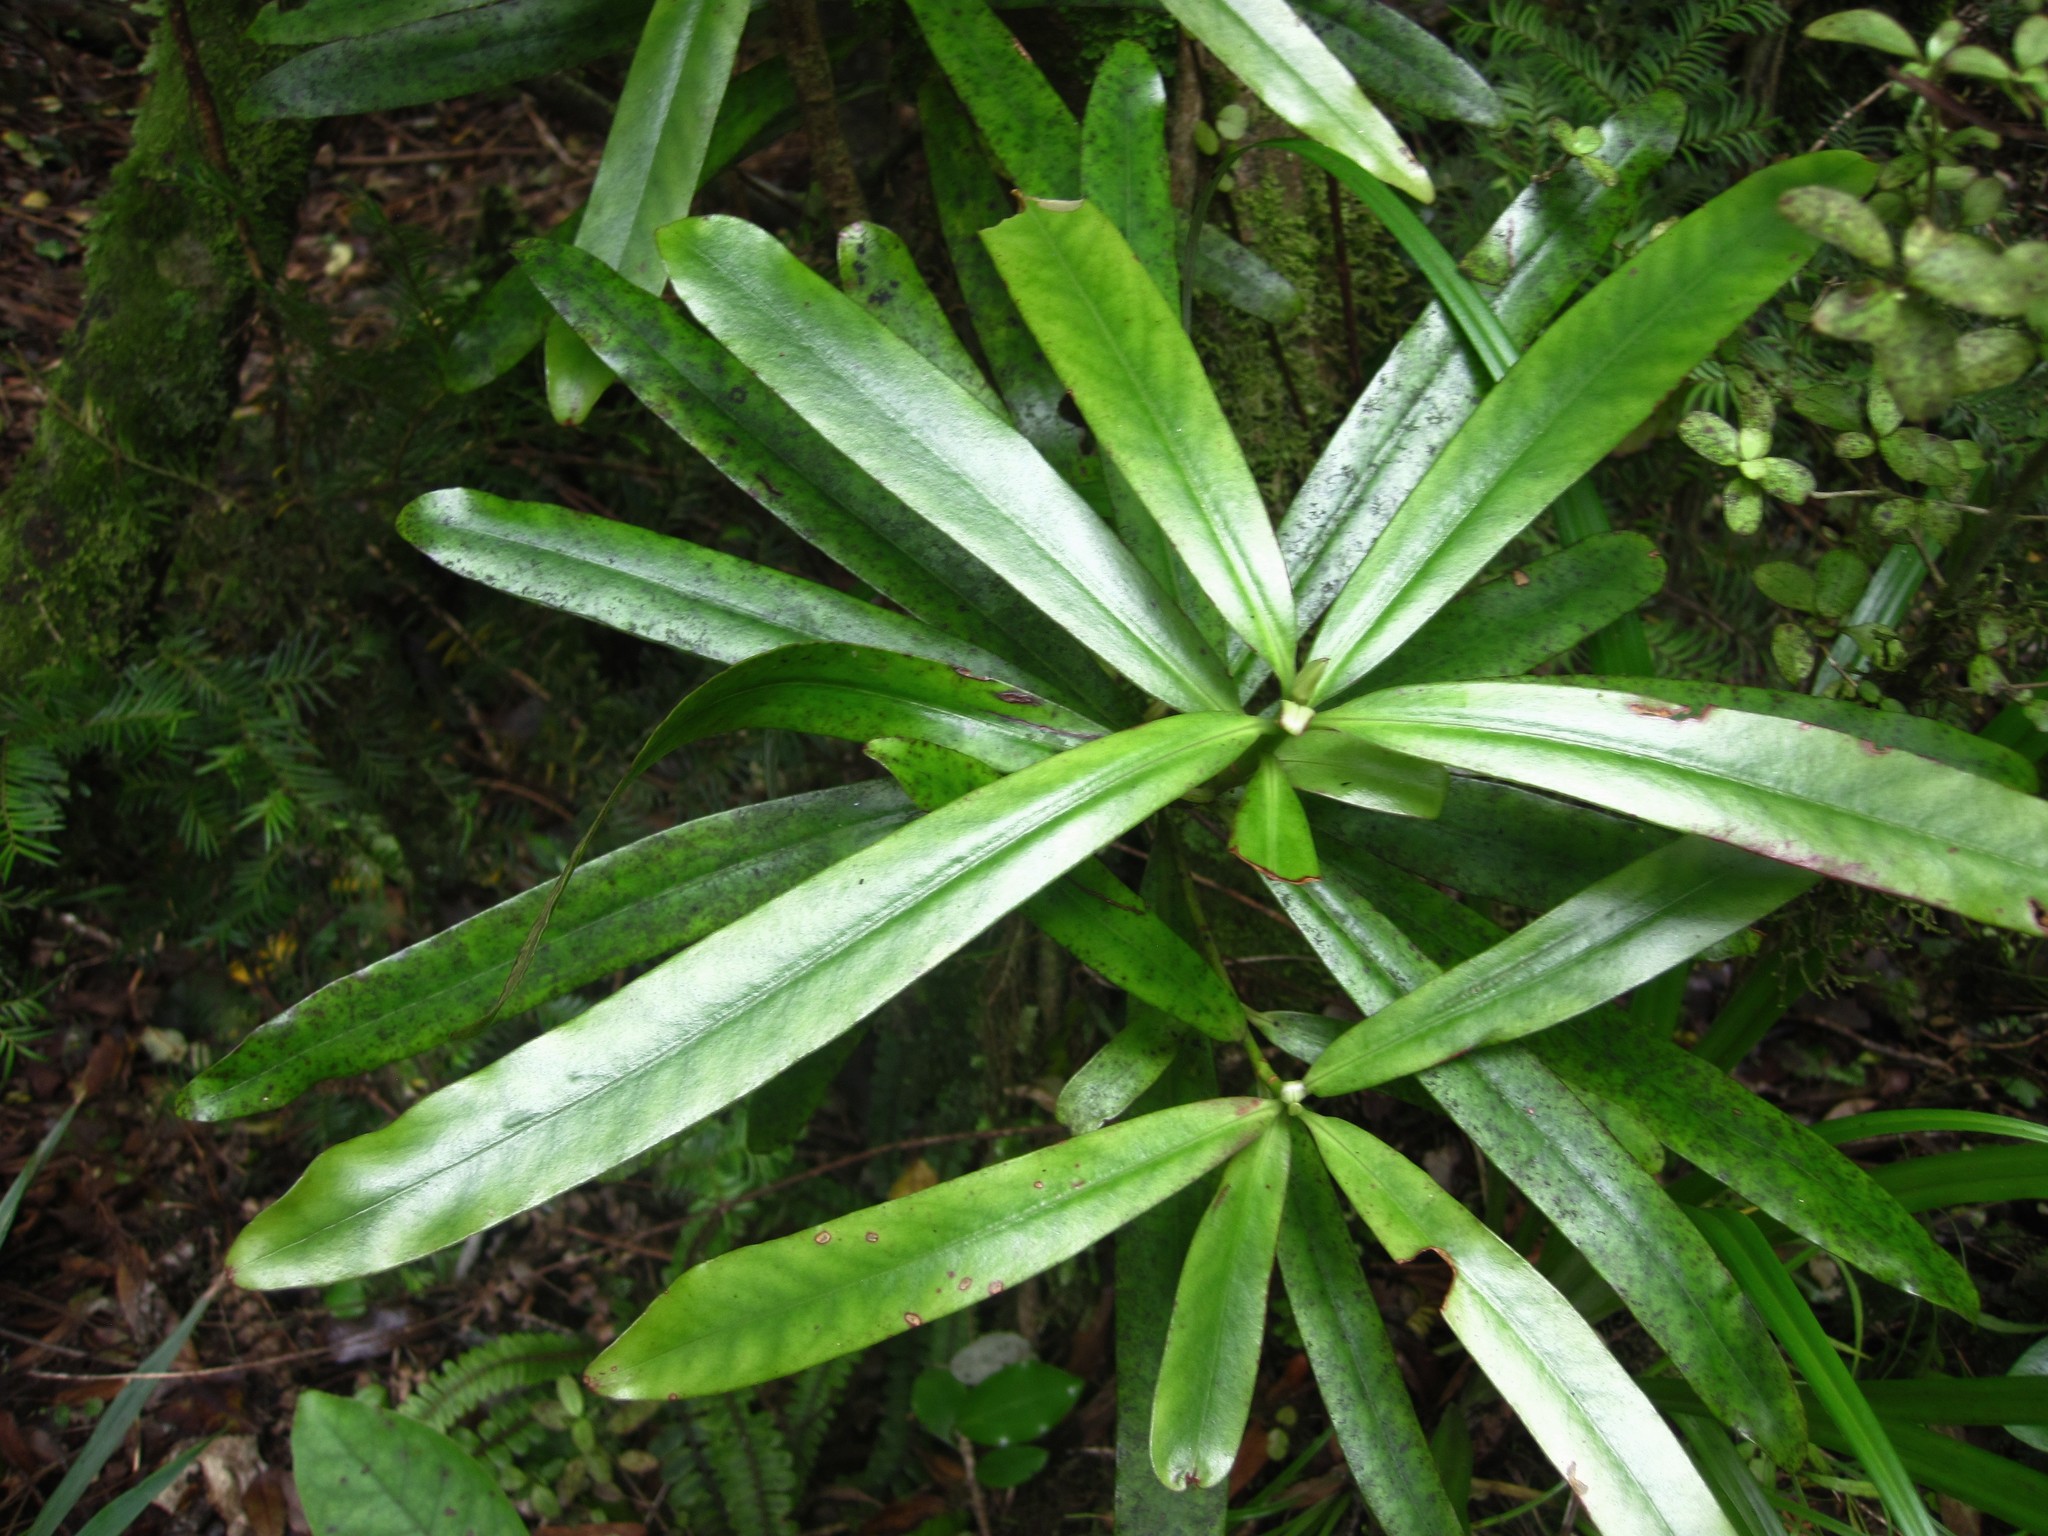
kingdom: Plantae
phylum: Tracheophyta
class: Magnoliopsida
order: Ericales
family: Primulaceae
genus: Myrsine
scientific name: Myrsine salicina
